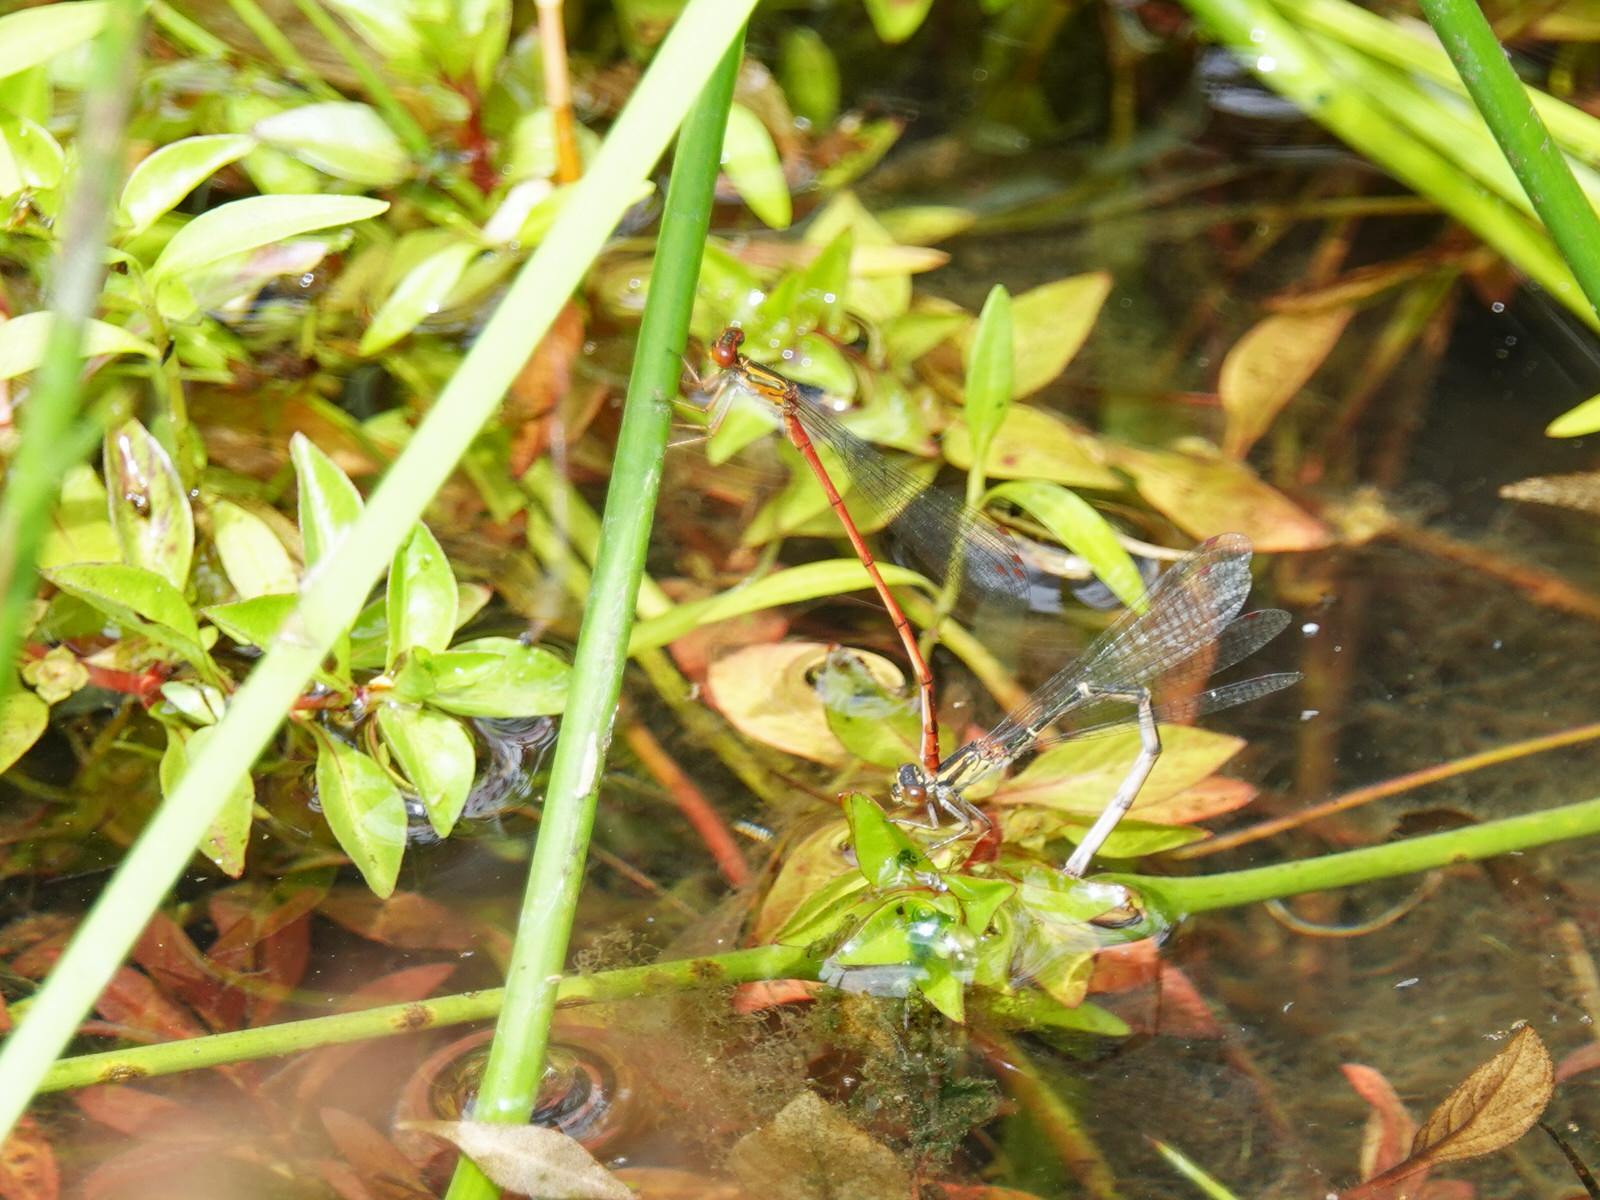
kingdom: Animalia
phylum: Arthropoda
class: Insecta
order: Odonata
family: Coenagrionidae
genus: Xanthocnemis
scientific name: Xanthocnemis zealandica
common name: Common redcoat damselfly
